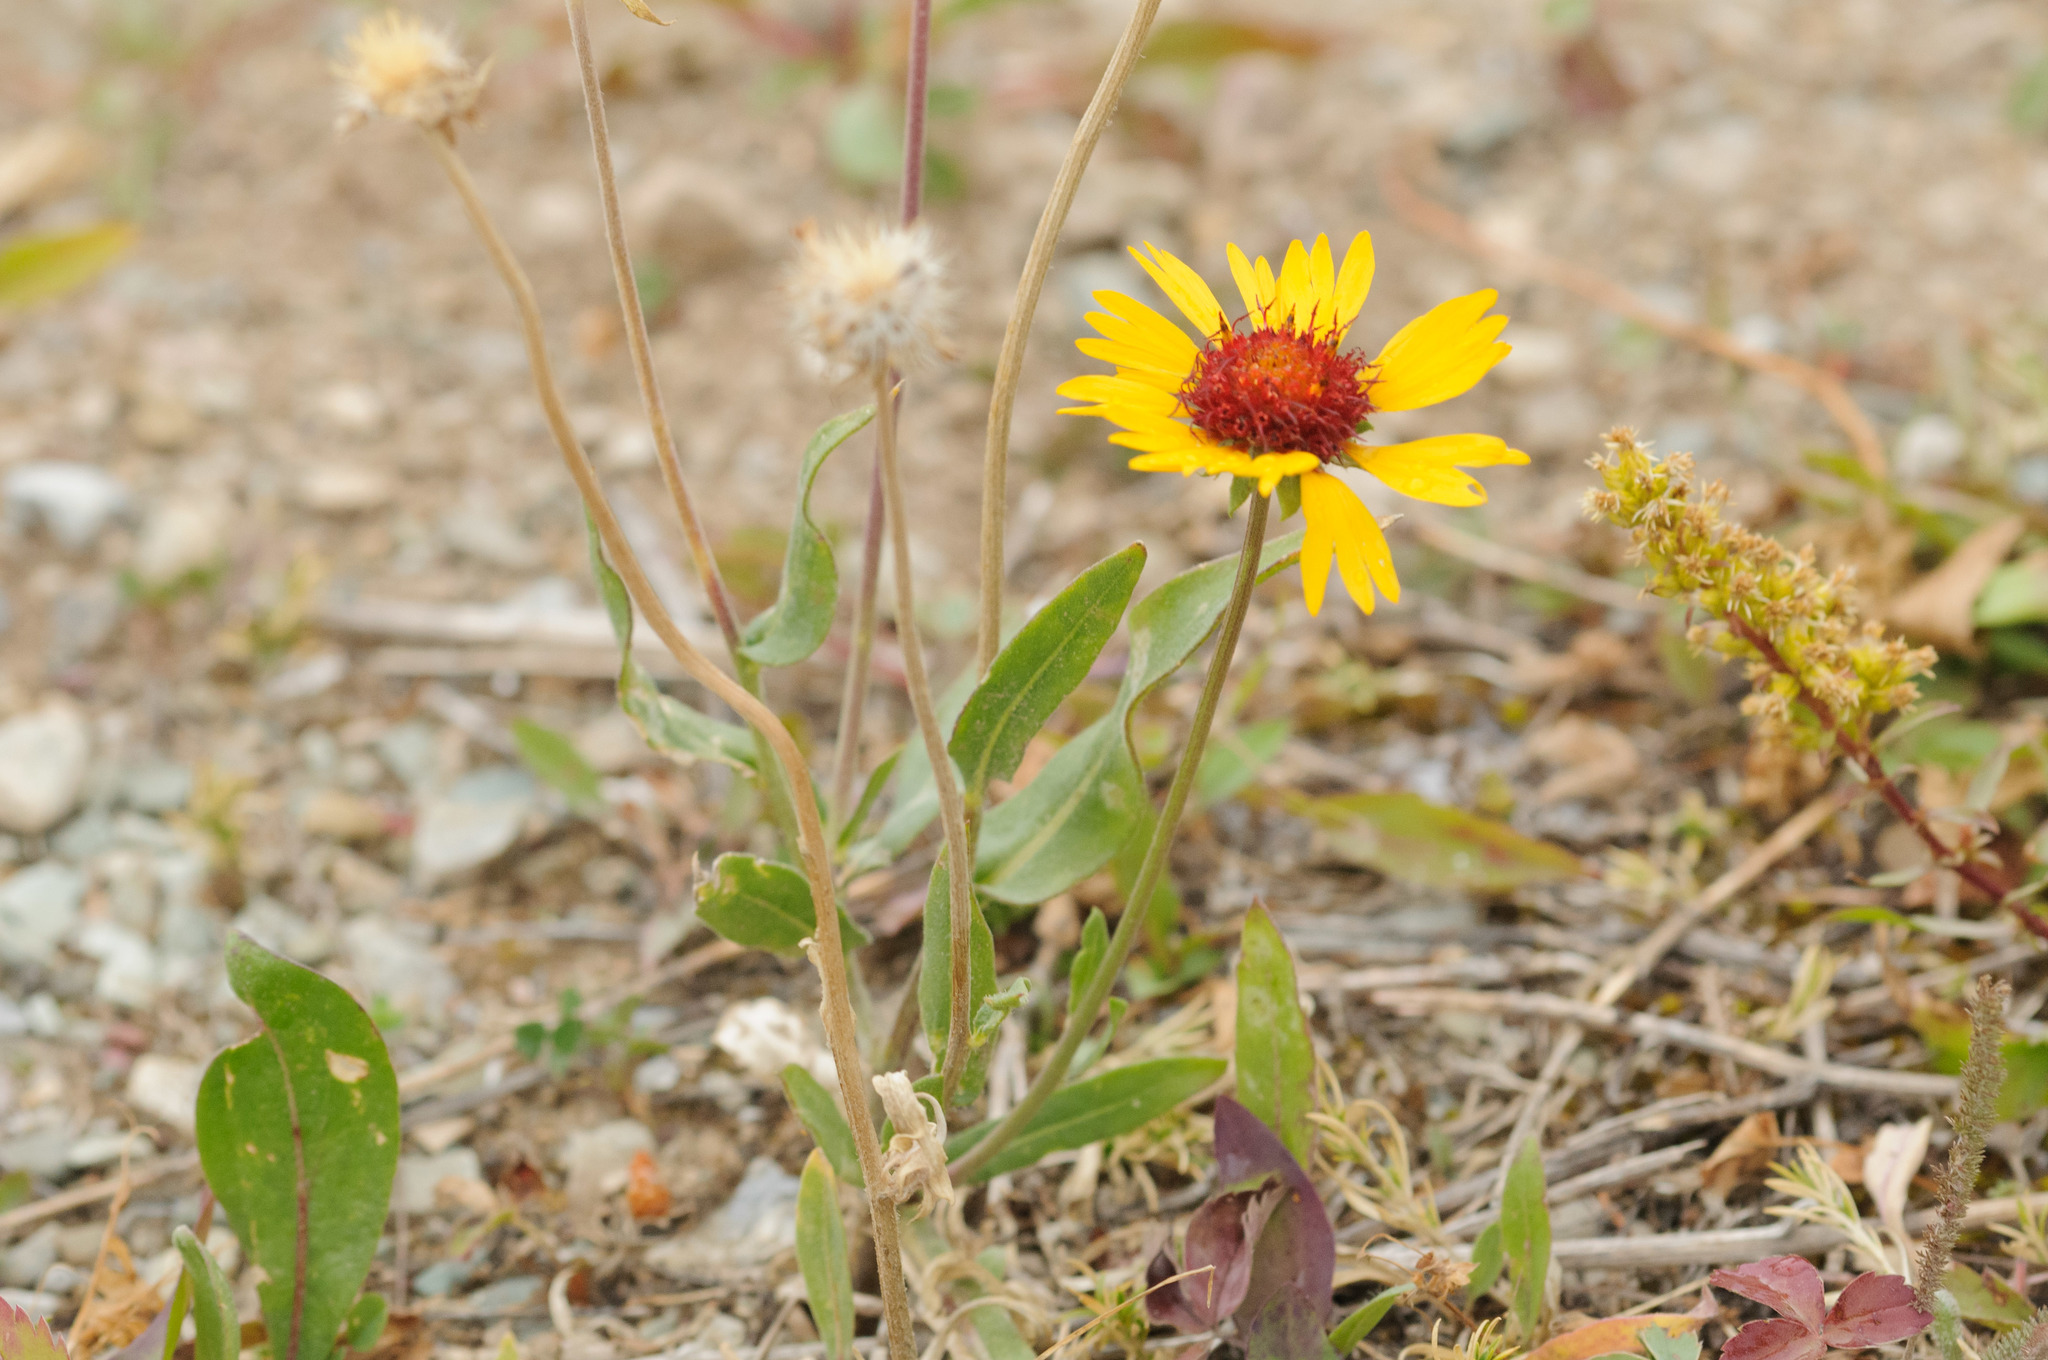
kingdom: Plantae
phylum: Tracheophyta
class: Magnoliopsida
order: Asterales
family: Asteraceae
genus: Gaillardia
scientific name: Gaillardia aristata
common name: Blanket-flower
